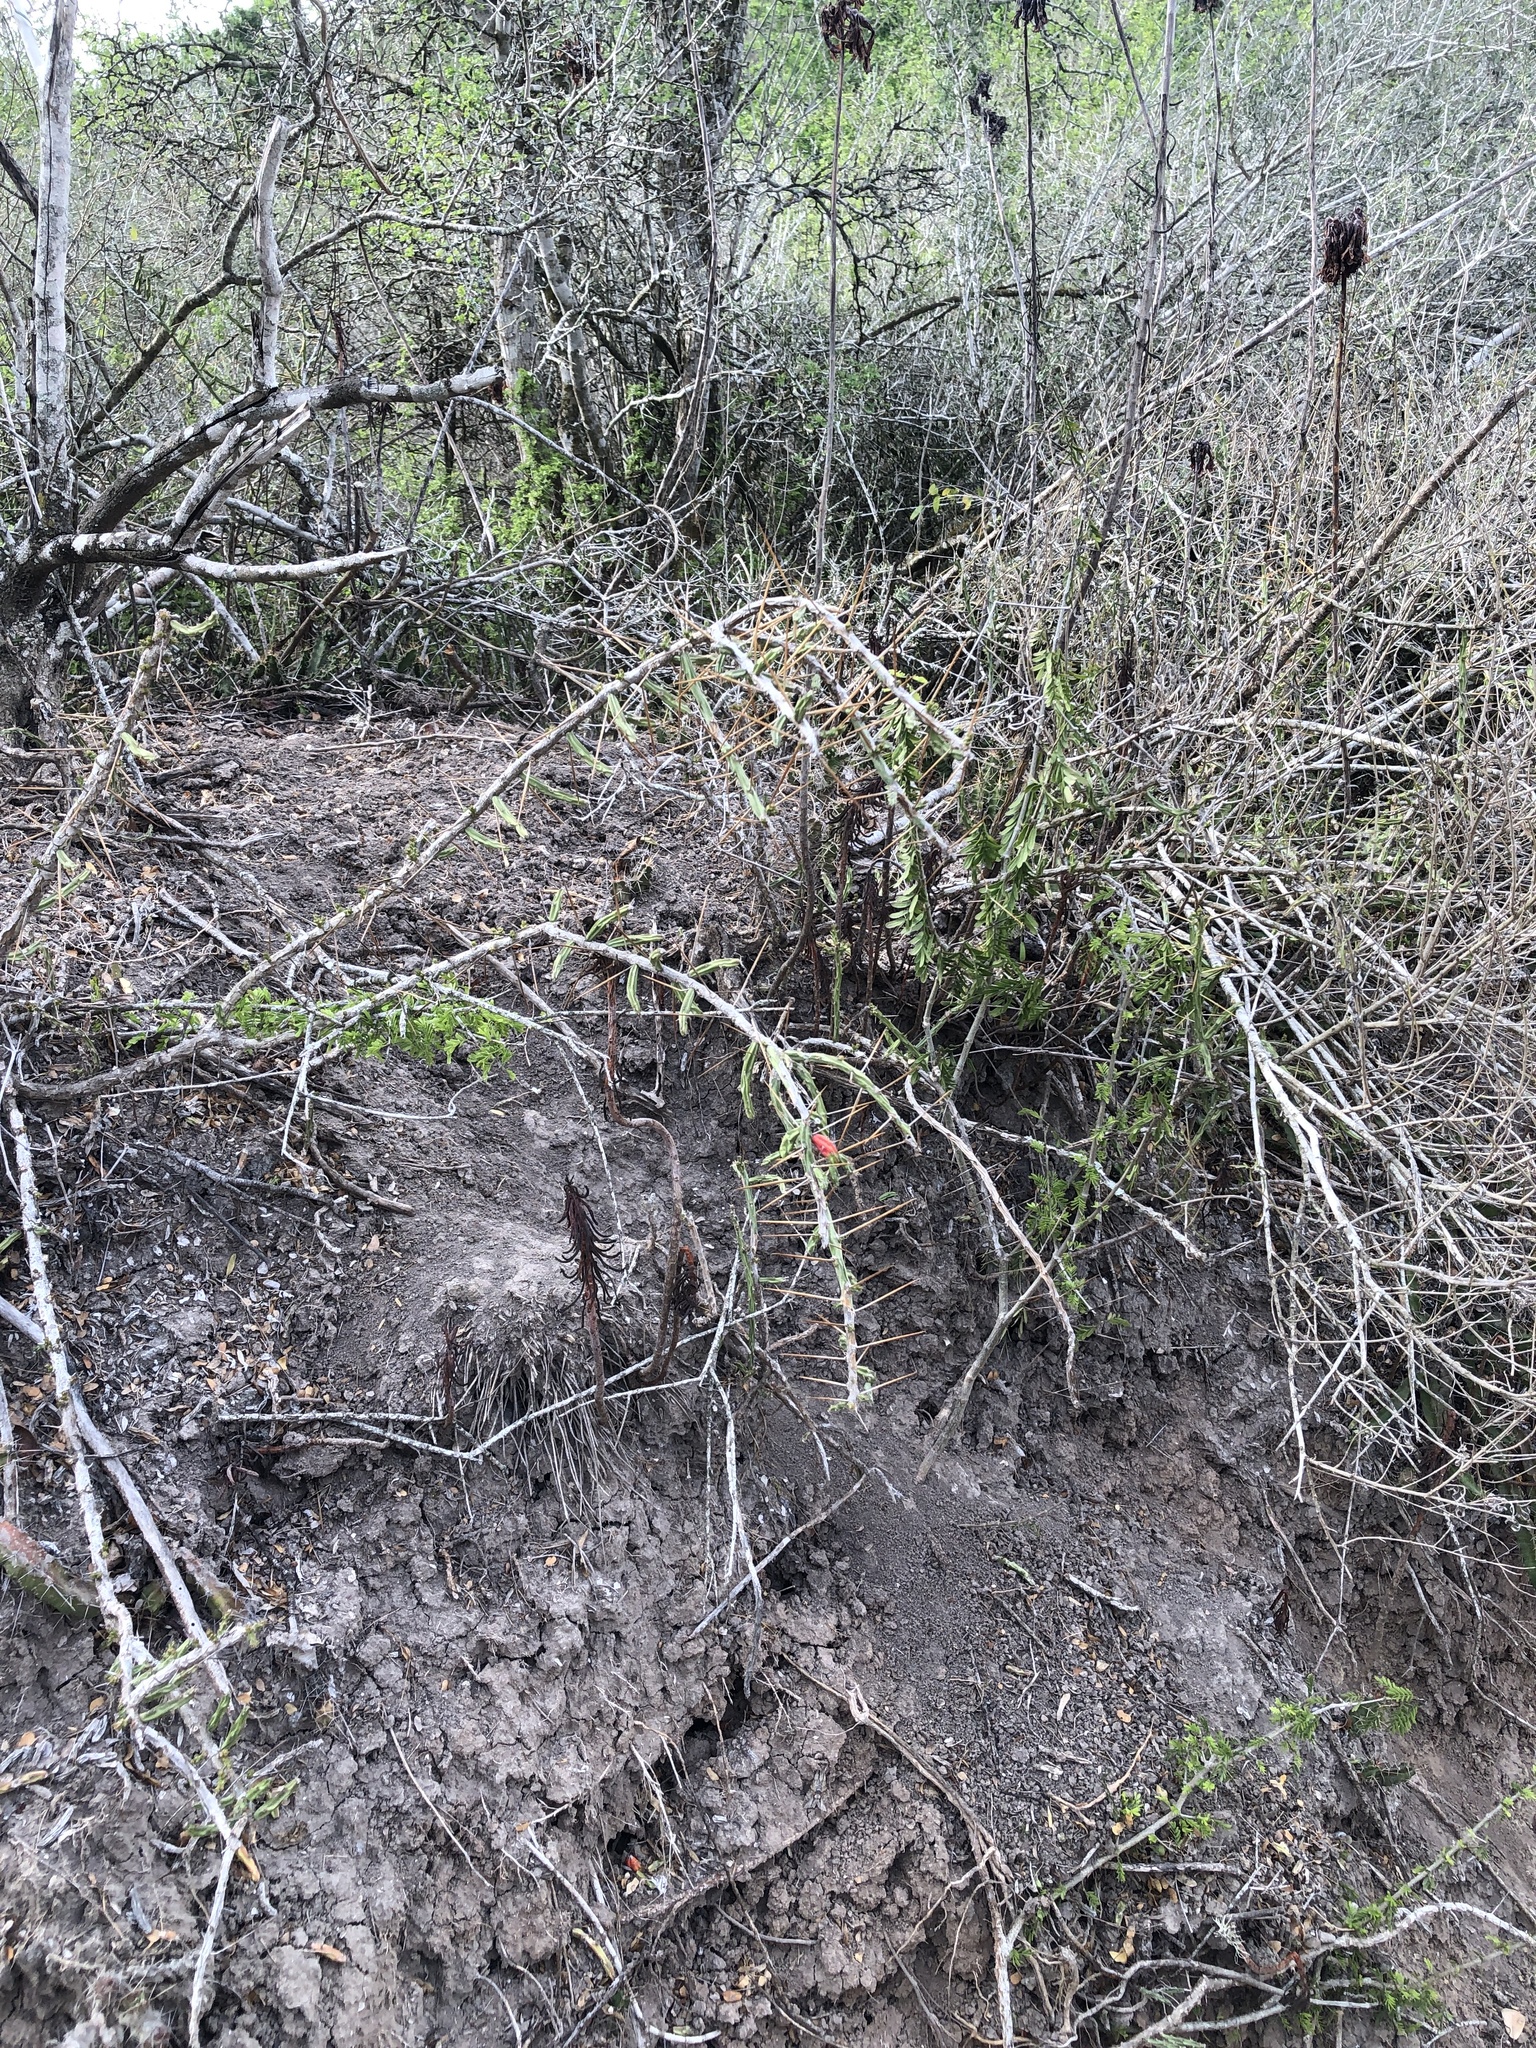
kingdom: Plantae
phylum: Tracheophyta
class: Magnoliopsida
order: Caryophyllales
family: Cactaceae
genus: Cylindropuntia
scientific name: Cylindropuntia leptocaulis
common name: Christmas cactus
